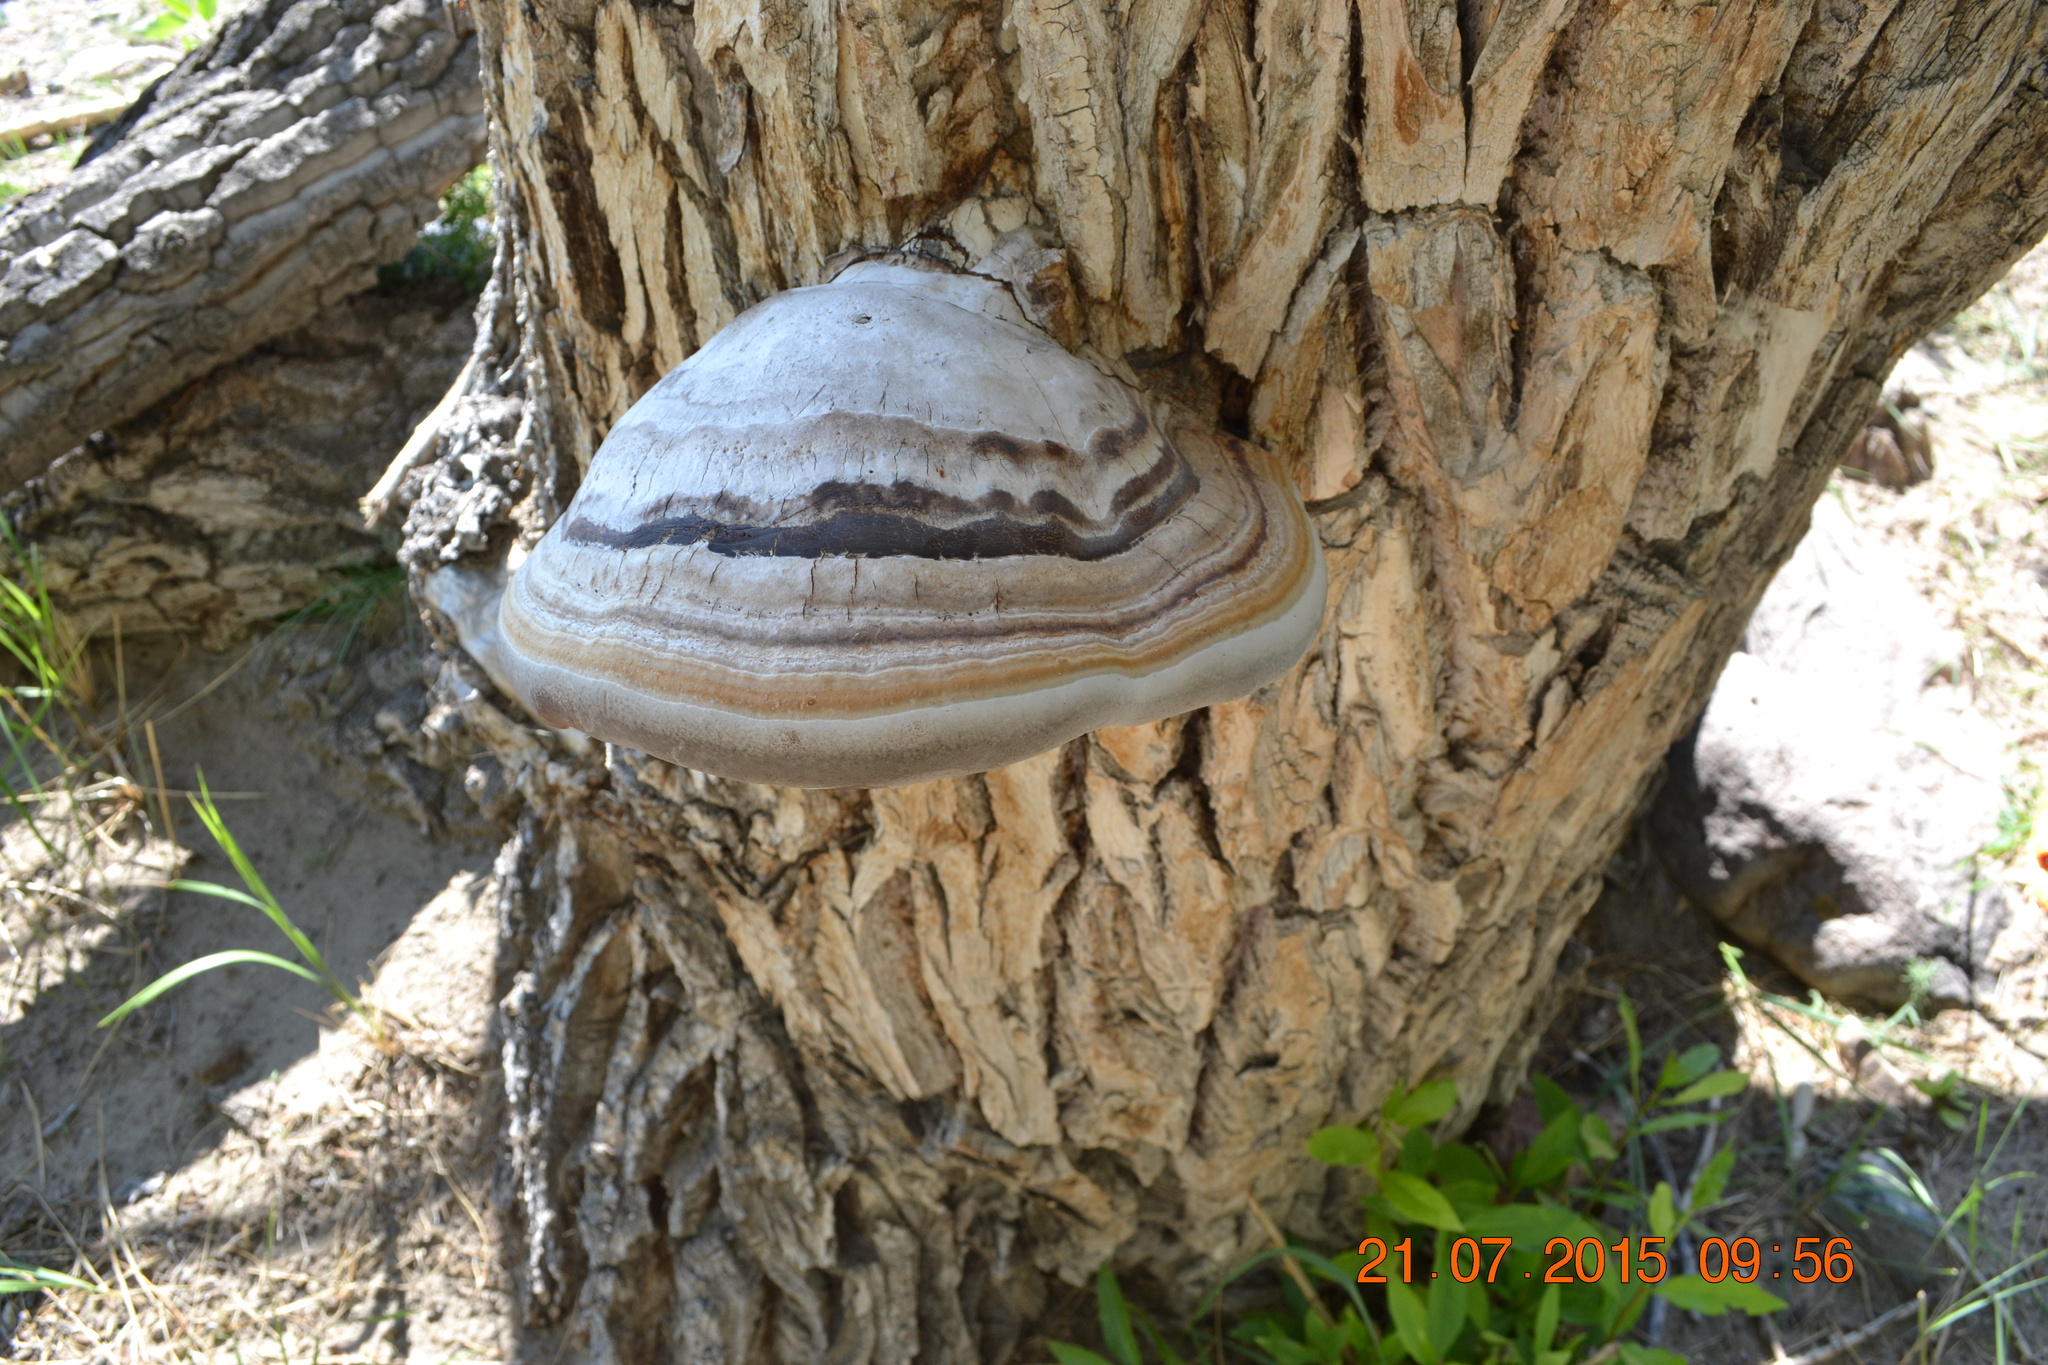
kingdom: Fungi
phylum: Basidiomycota
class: Agaricomycetes
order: Polyporales
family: Polyporaceae
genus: Fomes
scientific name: Fomes fomentarius
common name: Hoof fungus
